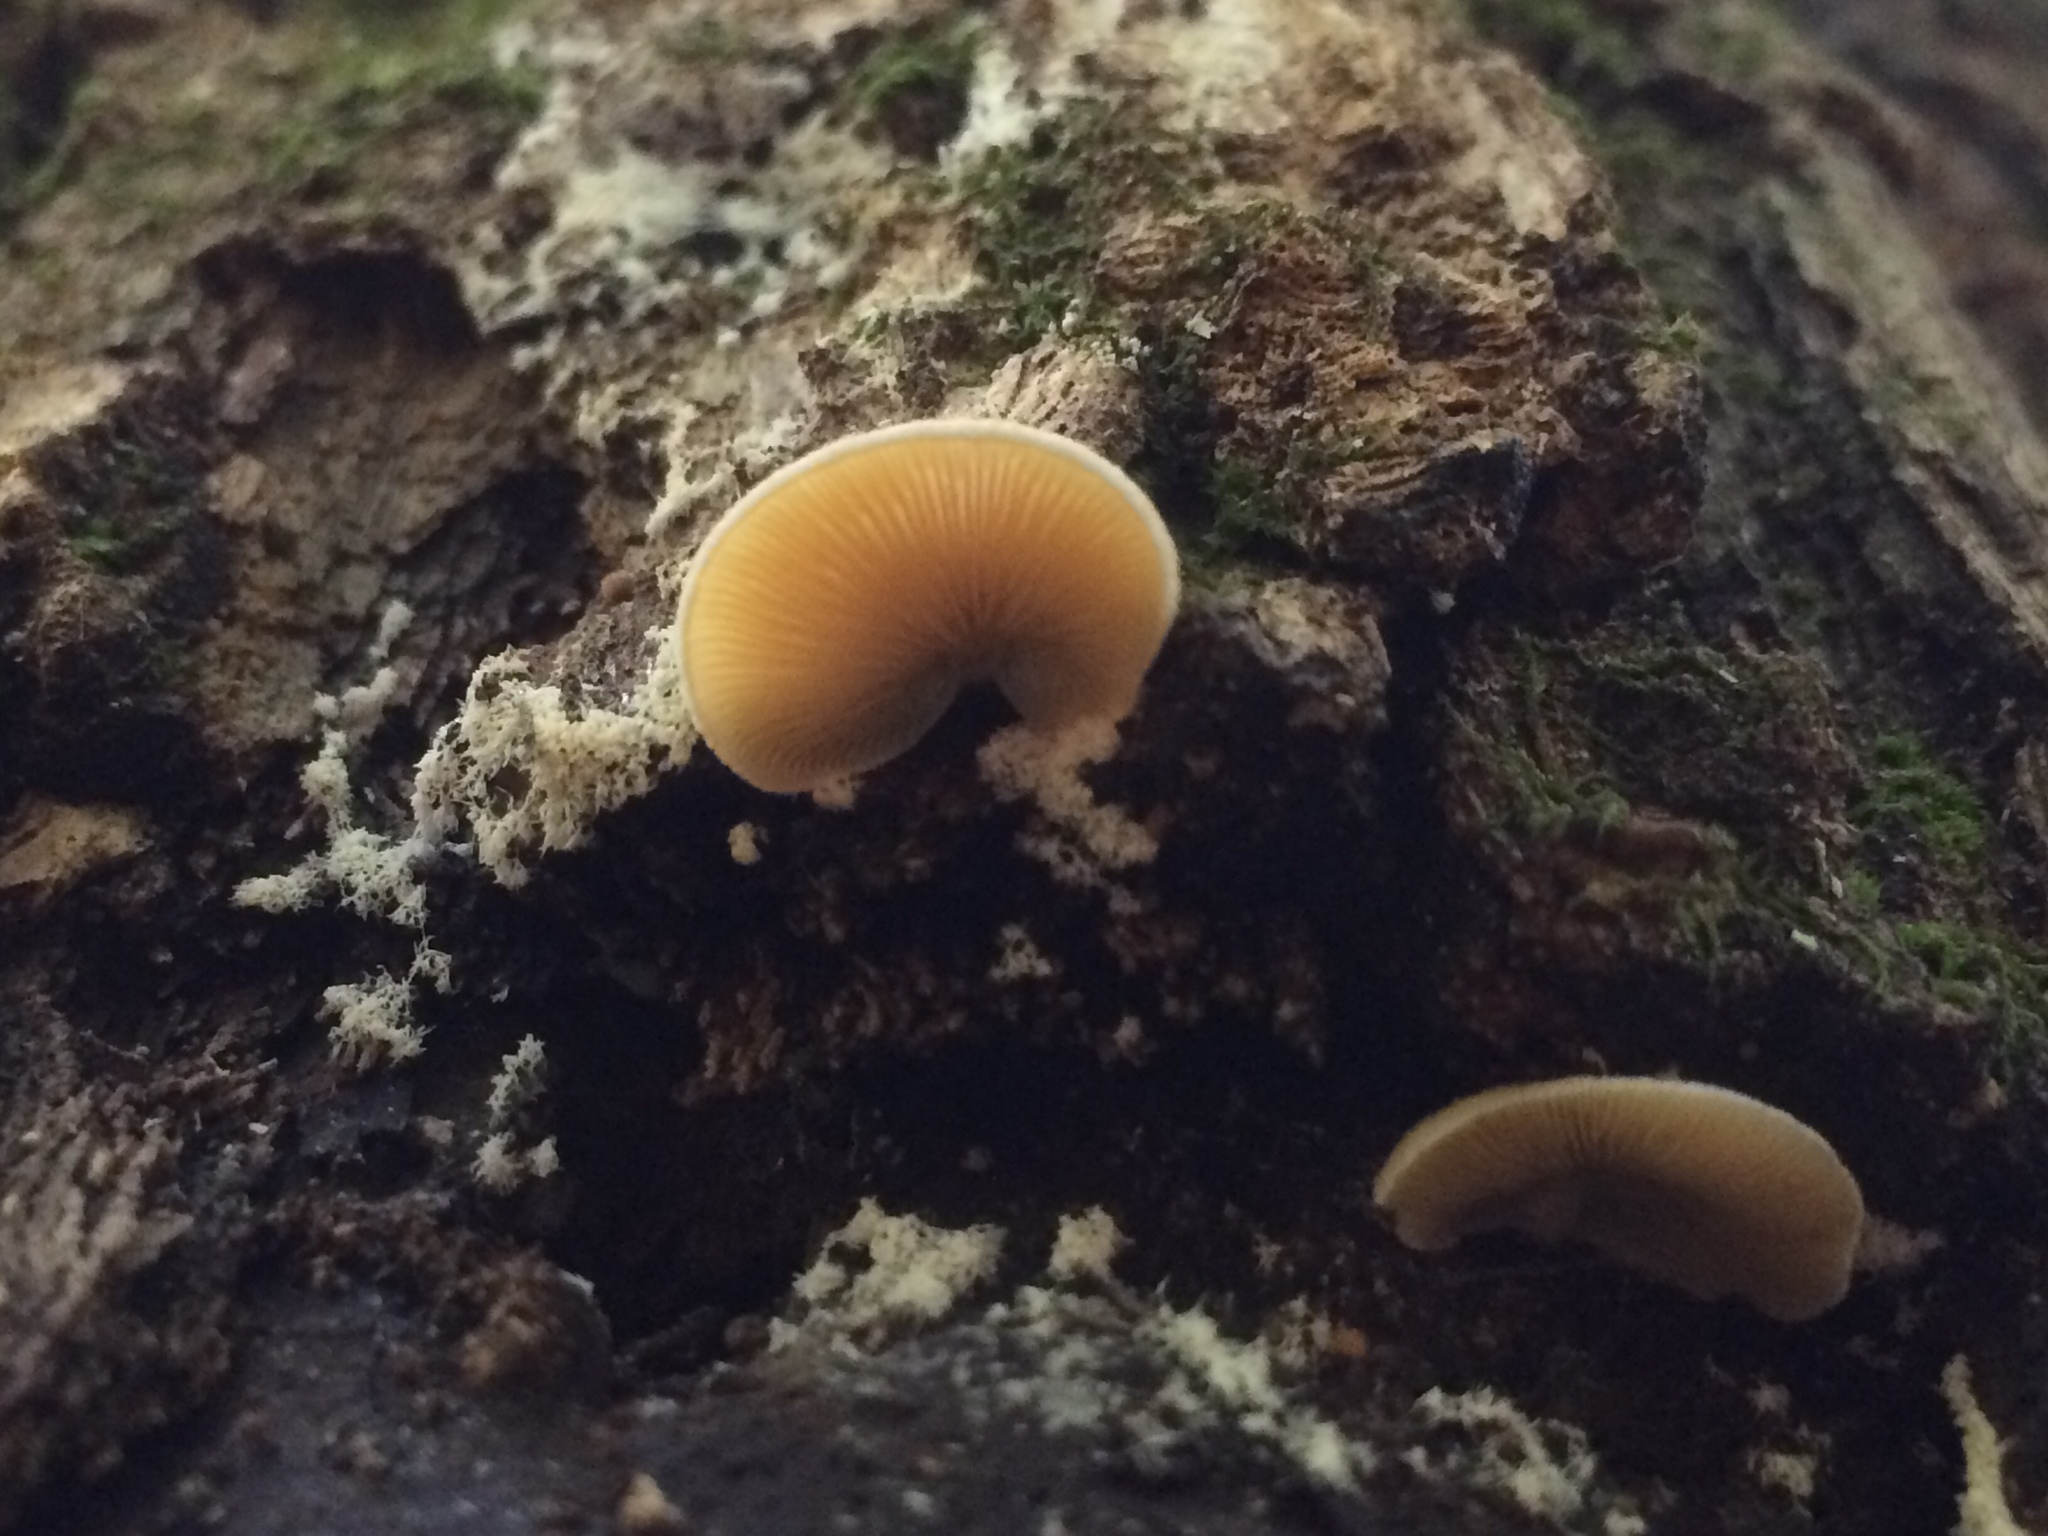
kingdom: Fungi
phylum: Basidiomycota
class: Agaricomycetes
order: Agaricales
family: Crepidotaceae
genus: Crepidotus
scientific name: Crepidotus crocophyllus
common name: Saffron oysterling
